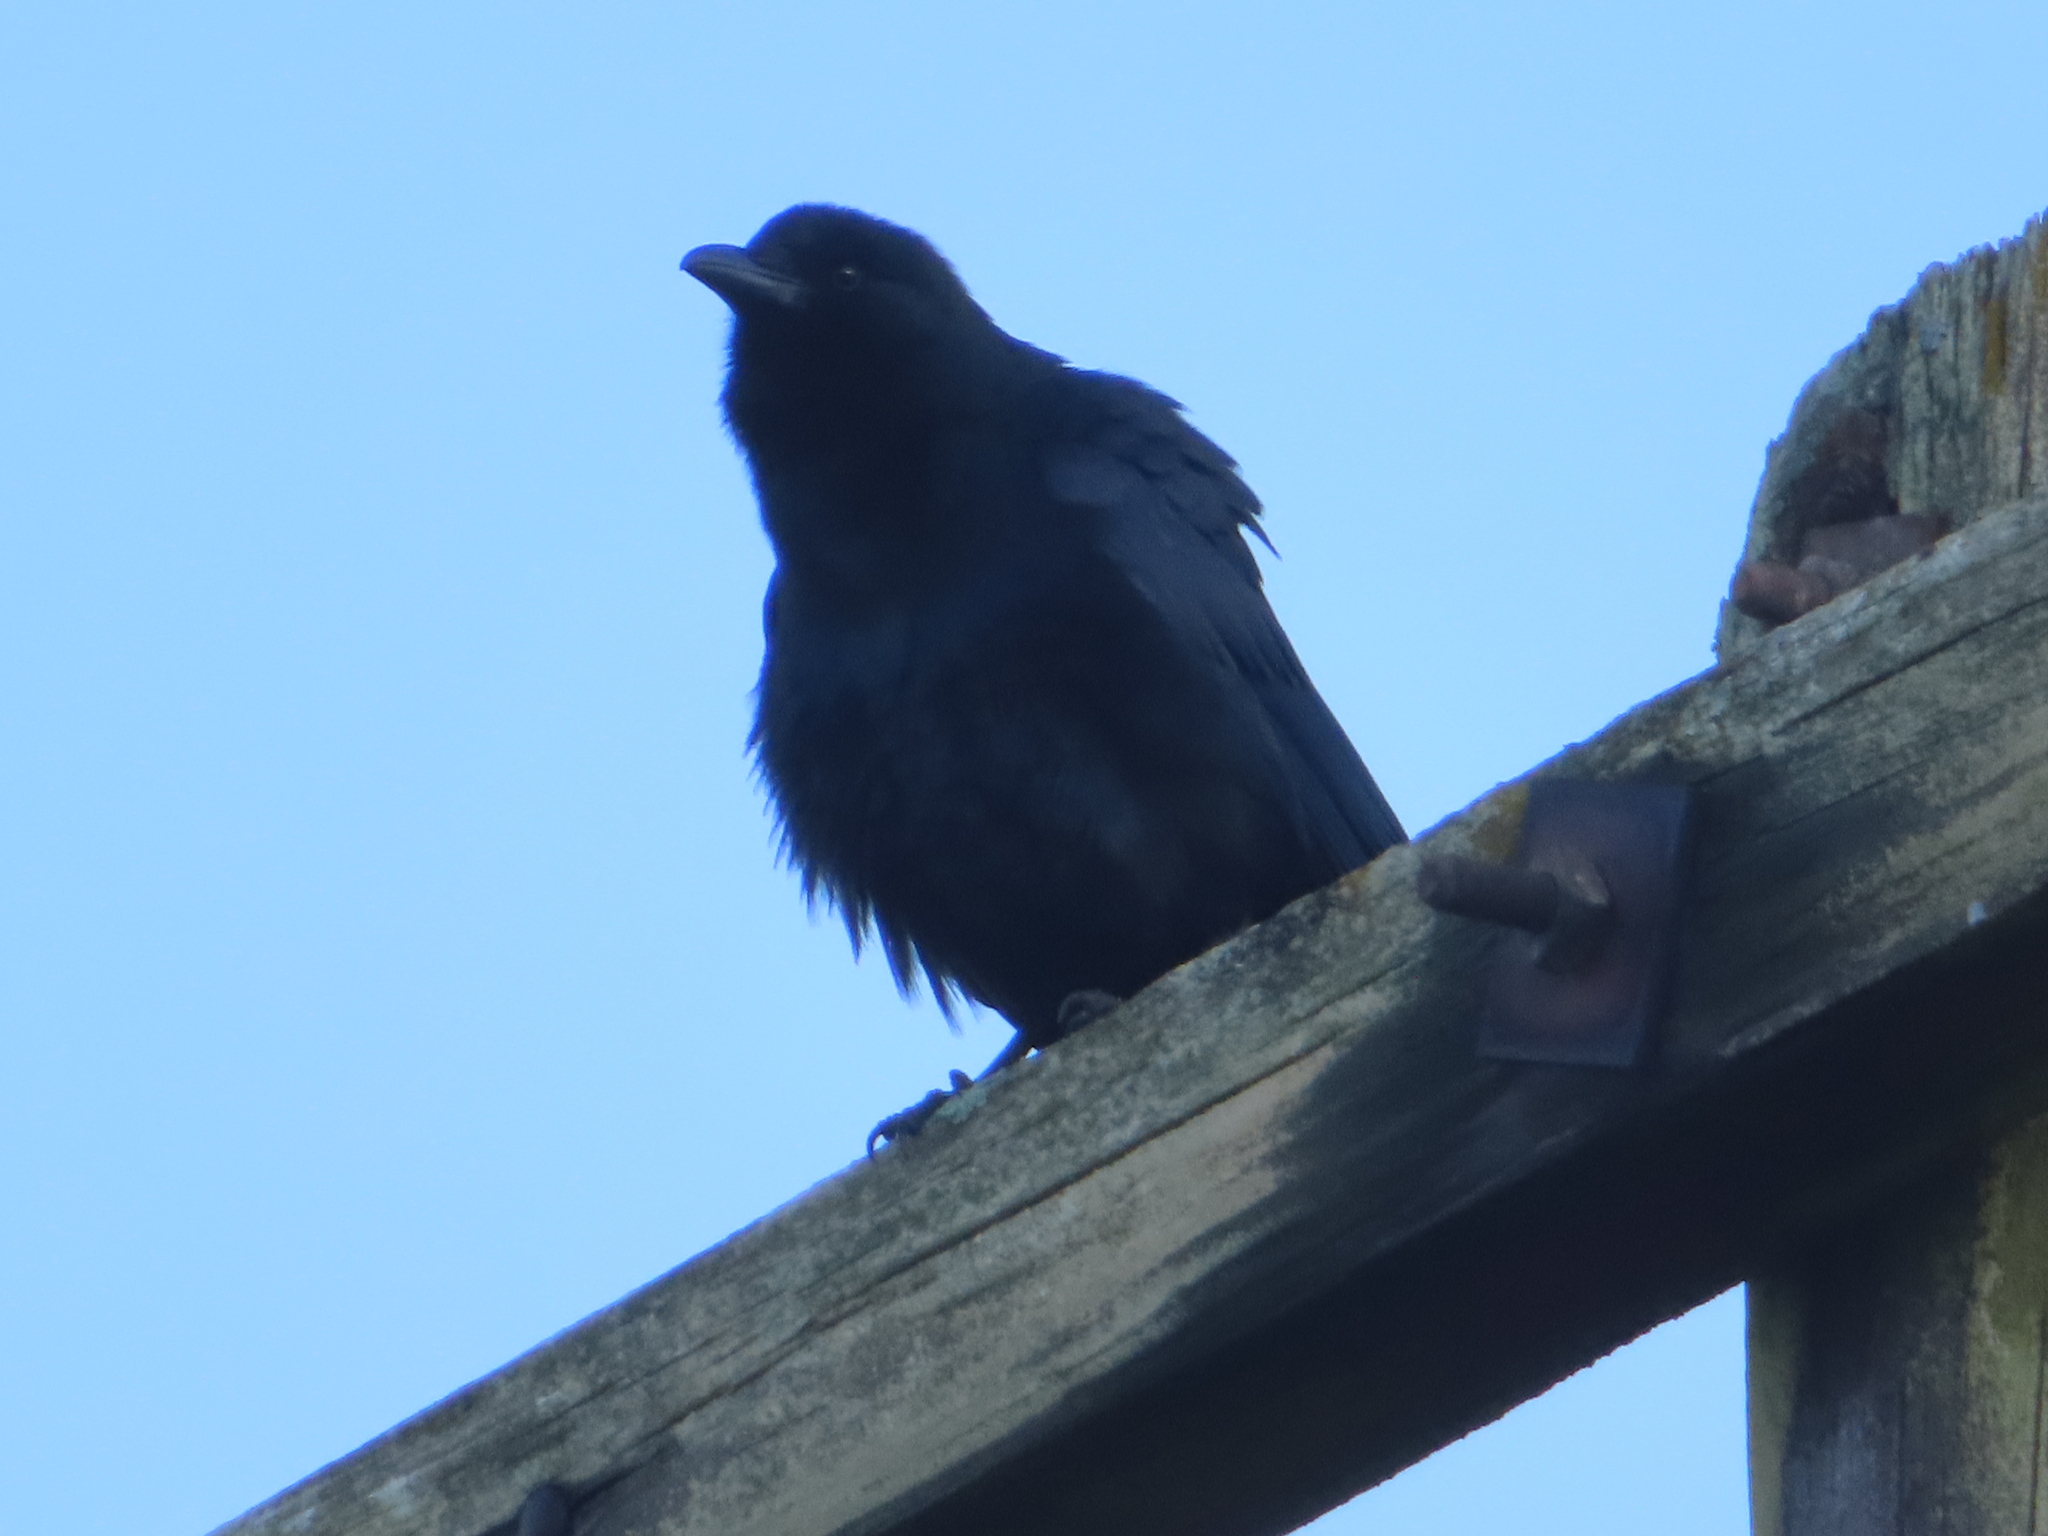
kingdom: Animalia
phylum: Chordata
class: Aves
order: Passeriformes
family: Corvidae
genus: Corvus
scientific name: Corvus ossifragus
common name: Fish crow
